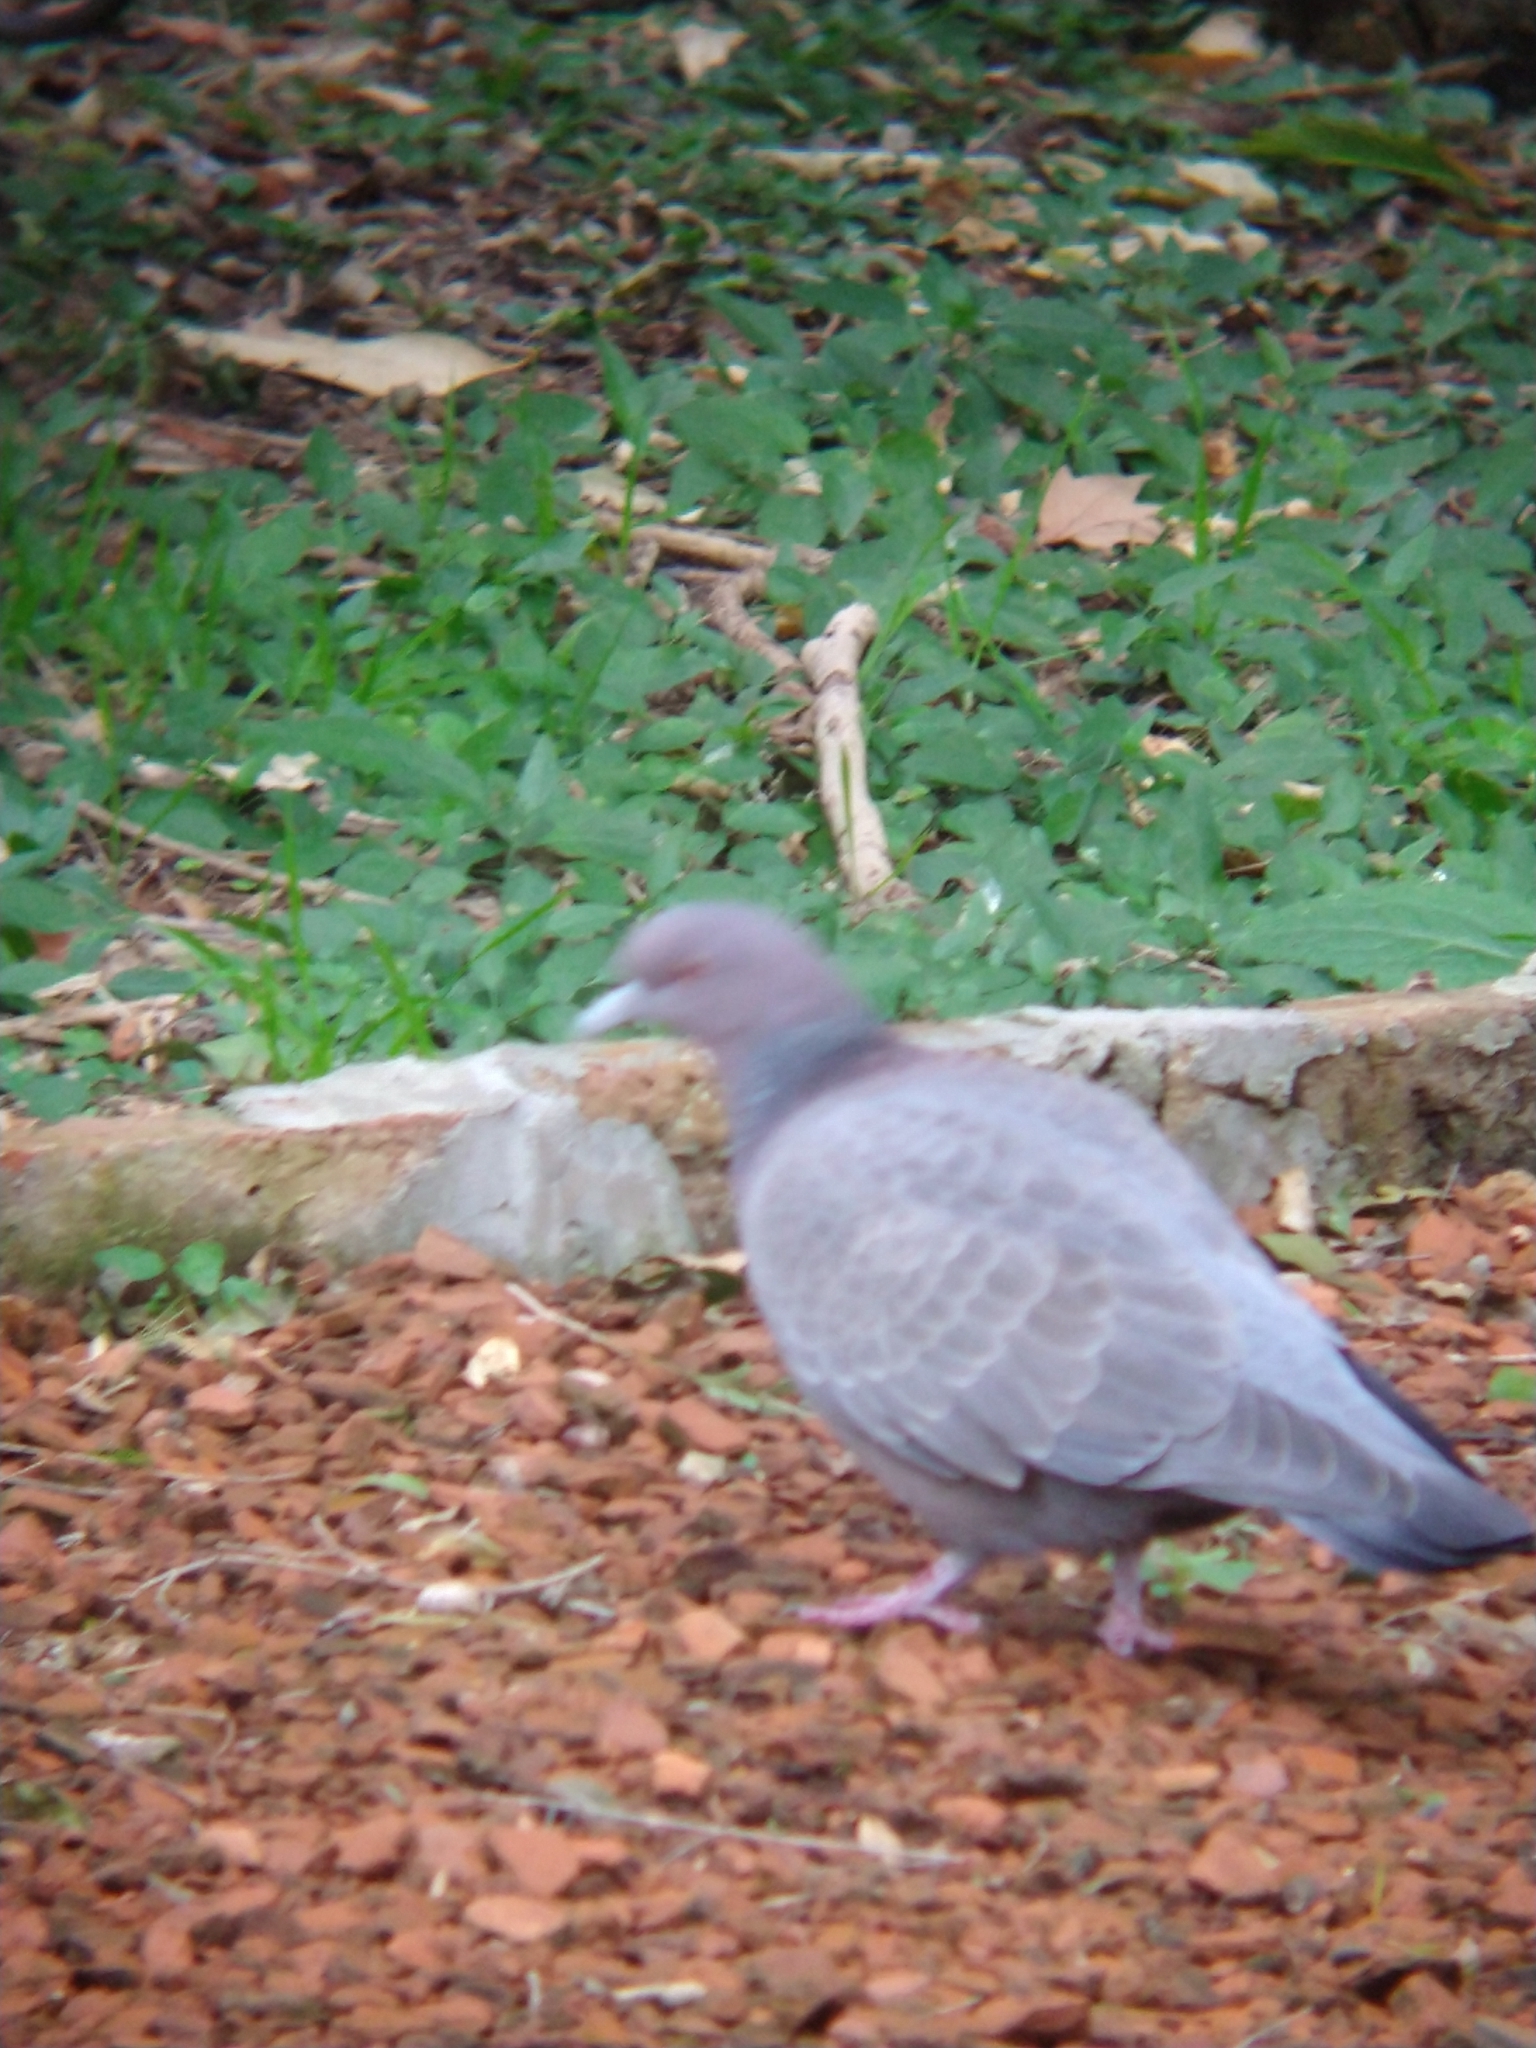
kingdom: Animalia
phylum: Chordata
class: Aves
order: Columbiformes
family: Columbidae
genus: Patagioenas
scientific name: Patagioenas picazuro
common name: Picazuro pigeon
